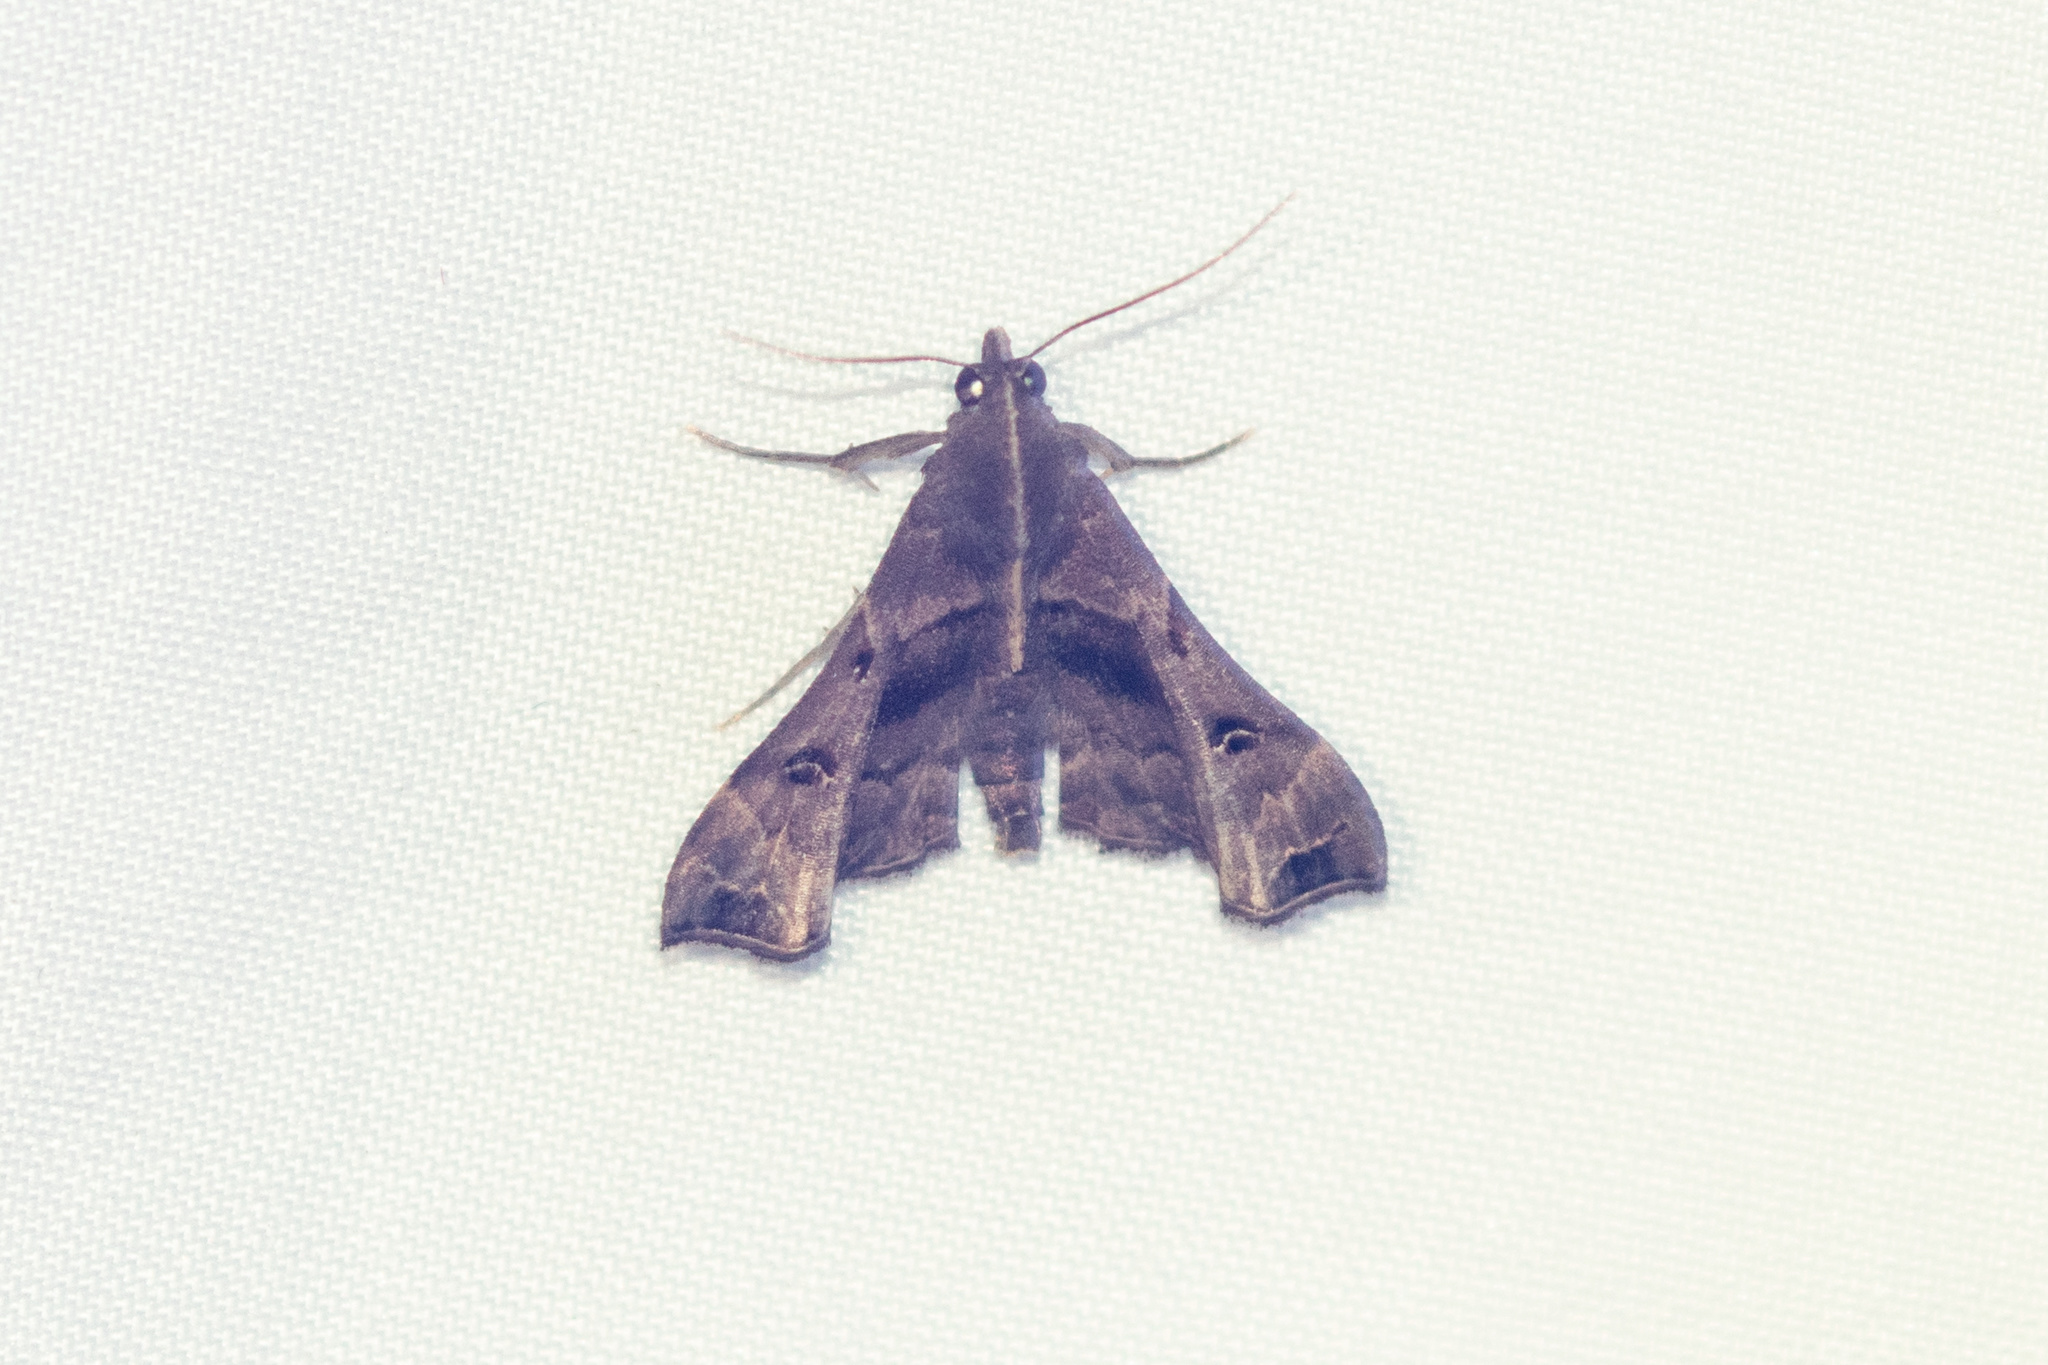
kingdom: Animalia
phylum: Arthropoda
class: Insecta
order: Lepidoptera
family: Erebidae
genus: Palthis
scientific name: Palthis asopialis
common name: Faint-spotted palthis moth
